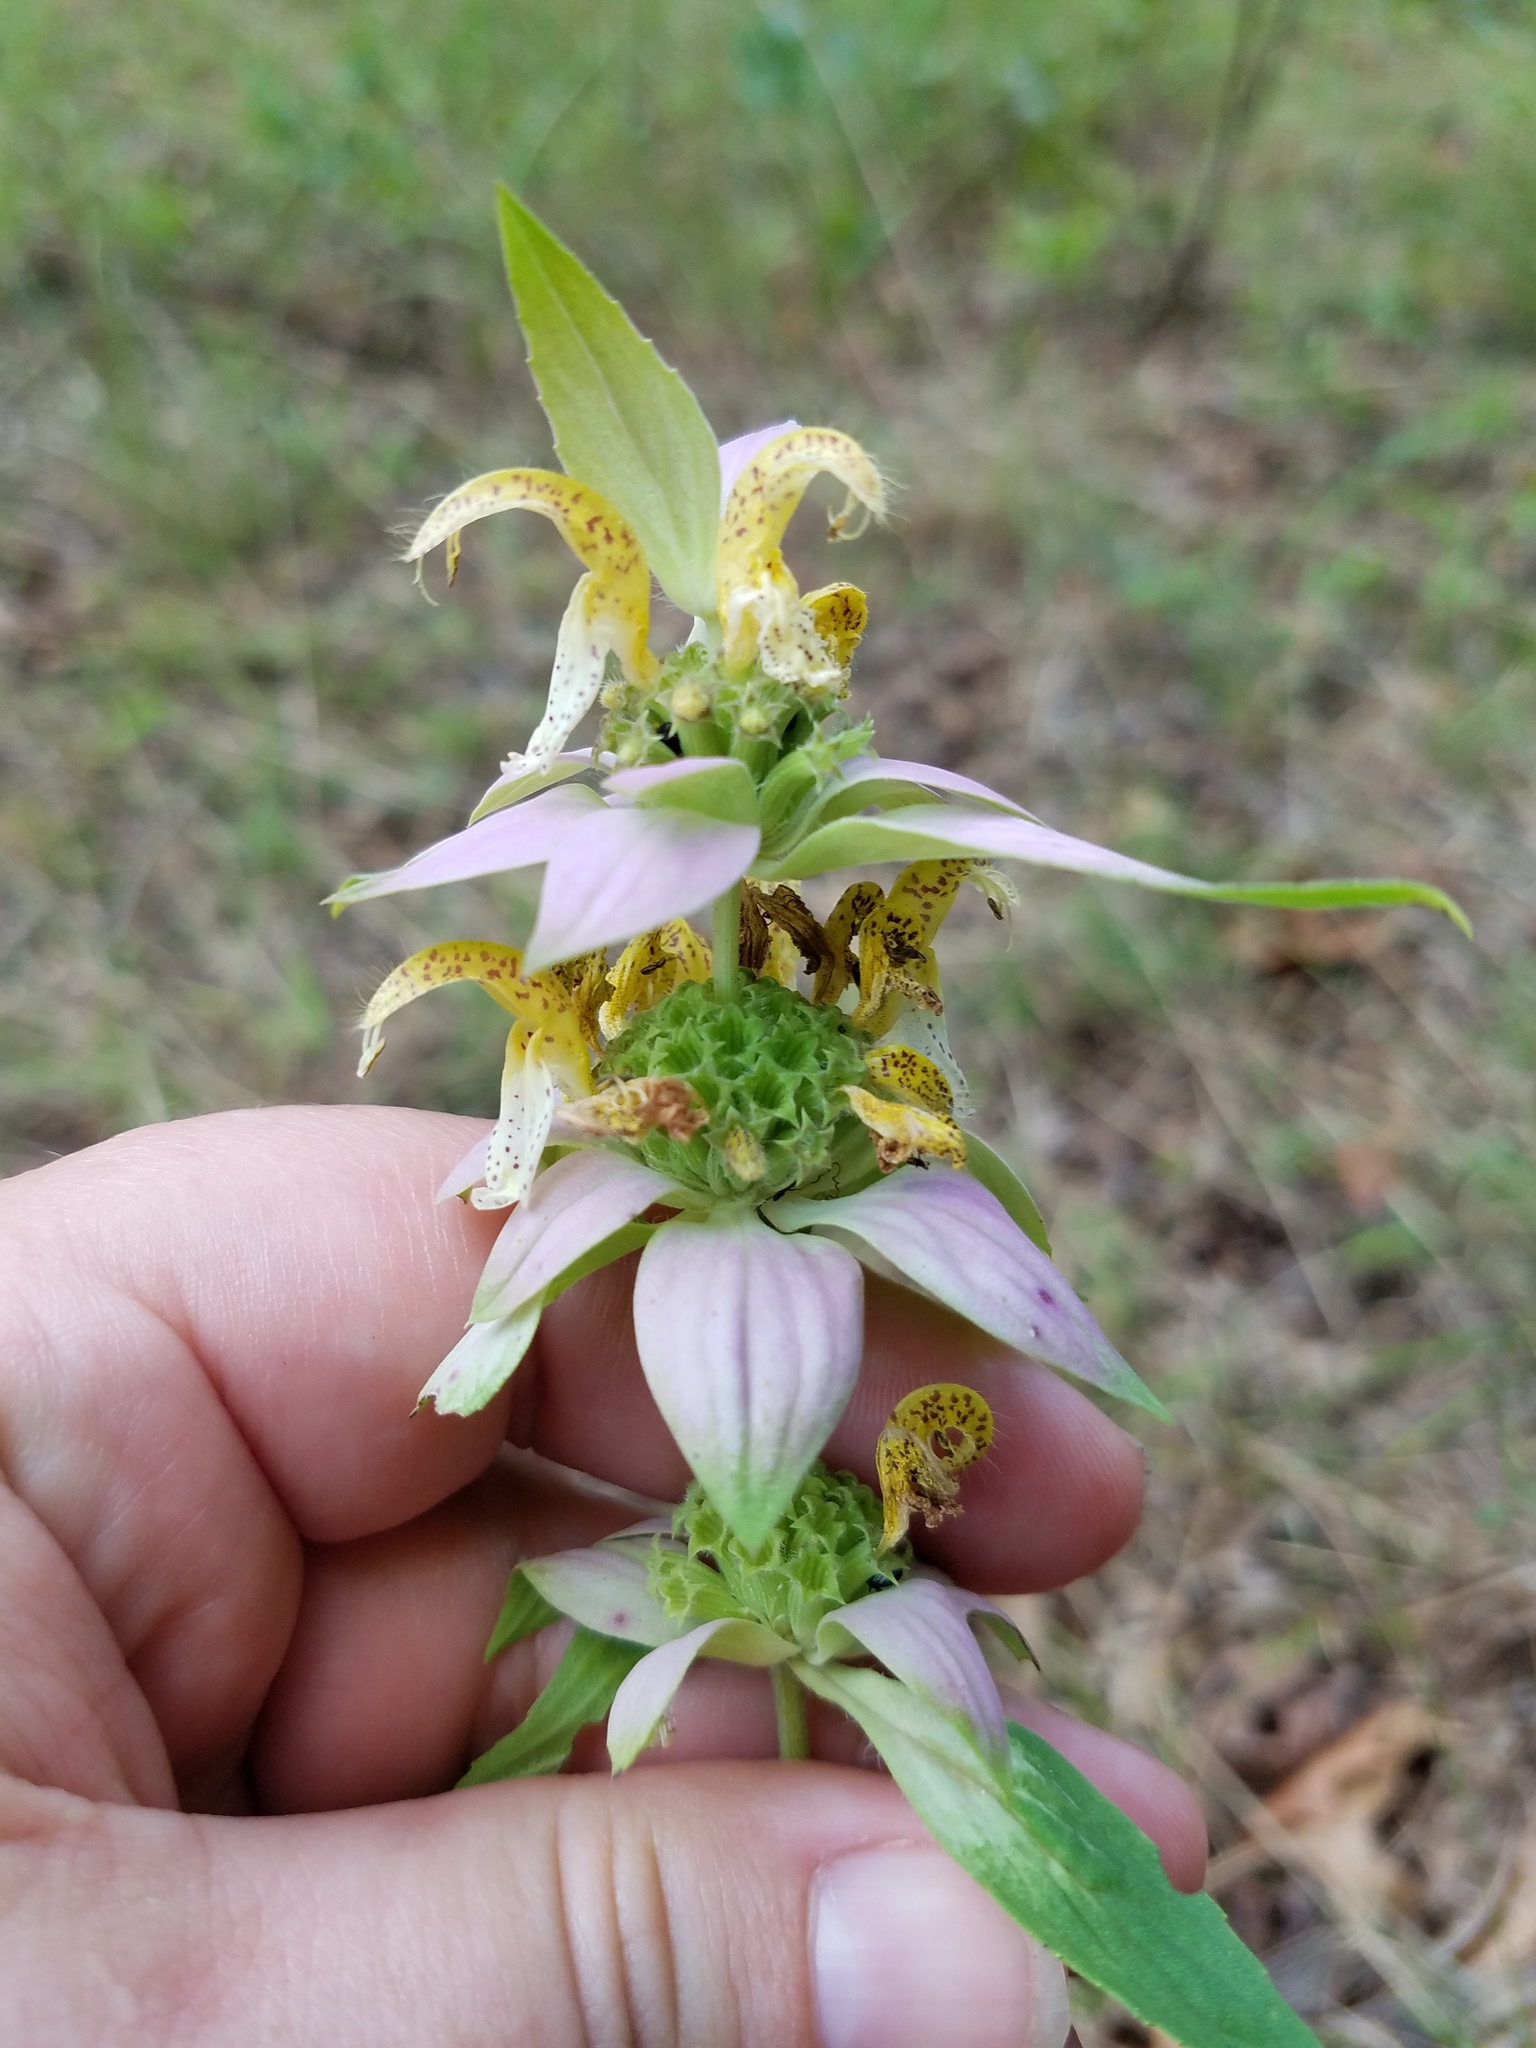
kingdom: Plantae
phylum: Tracheophyta
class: Magnoliopsida
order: Lamiales
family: Lamiaceae
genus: Monarda
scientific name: Monarda punctata
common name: Dotted monarda
